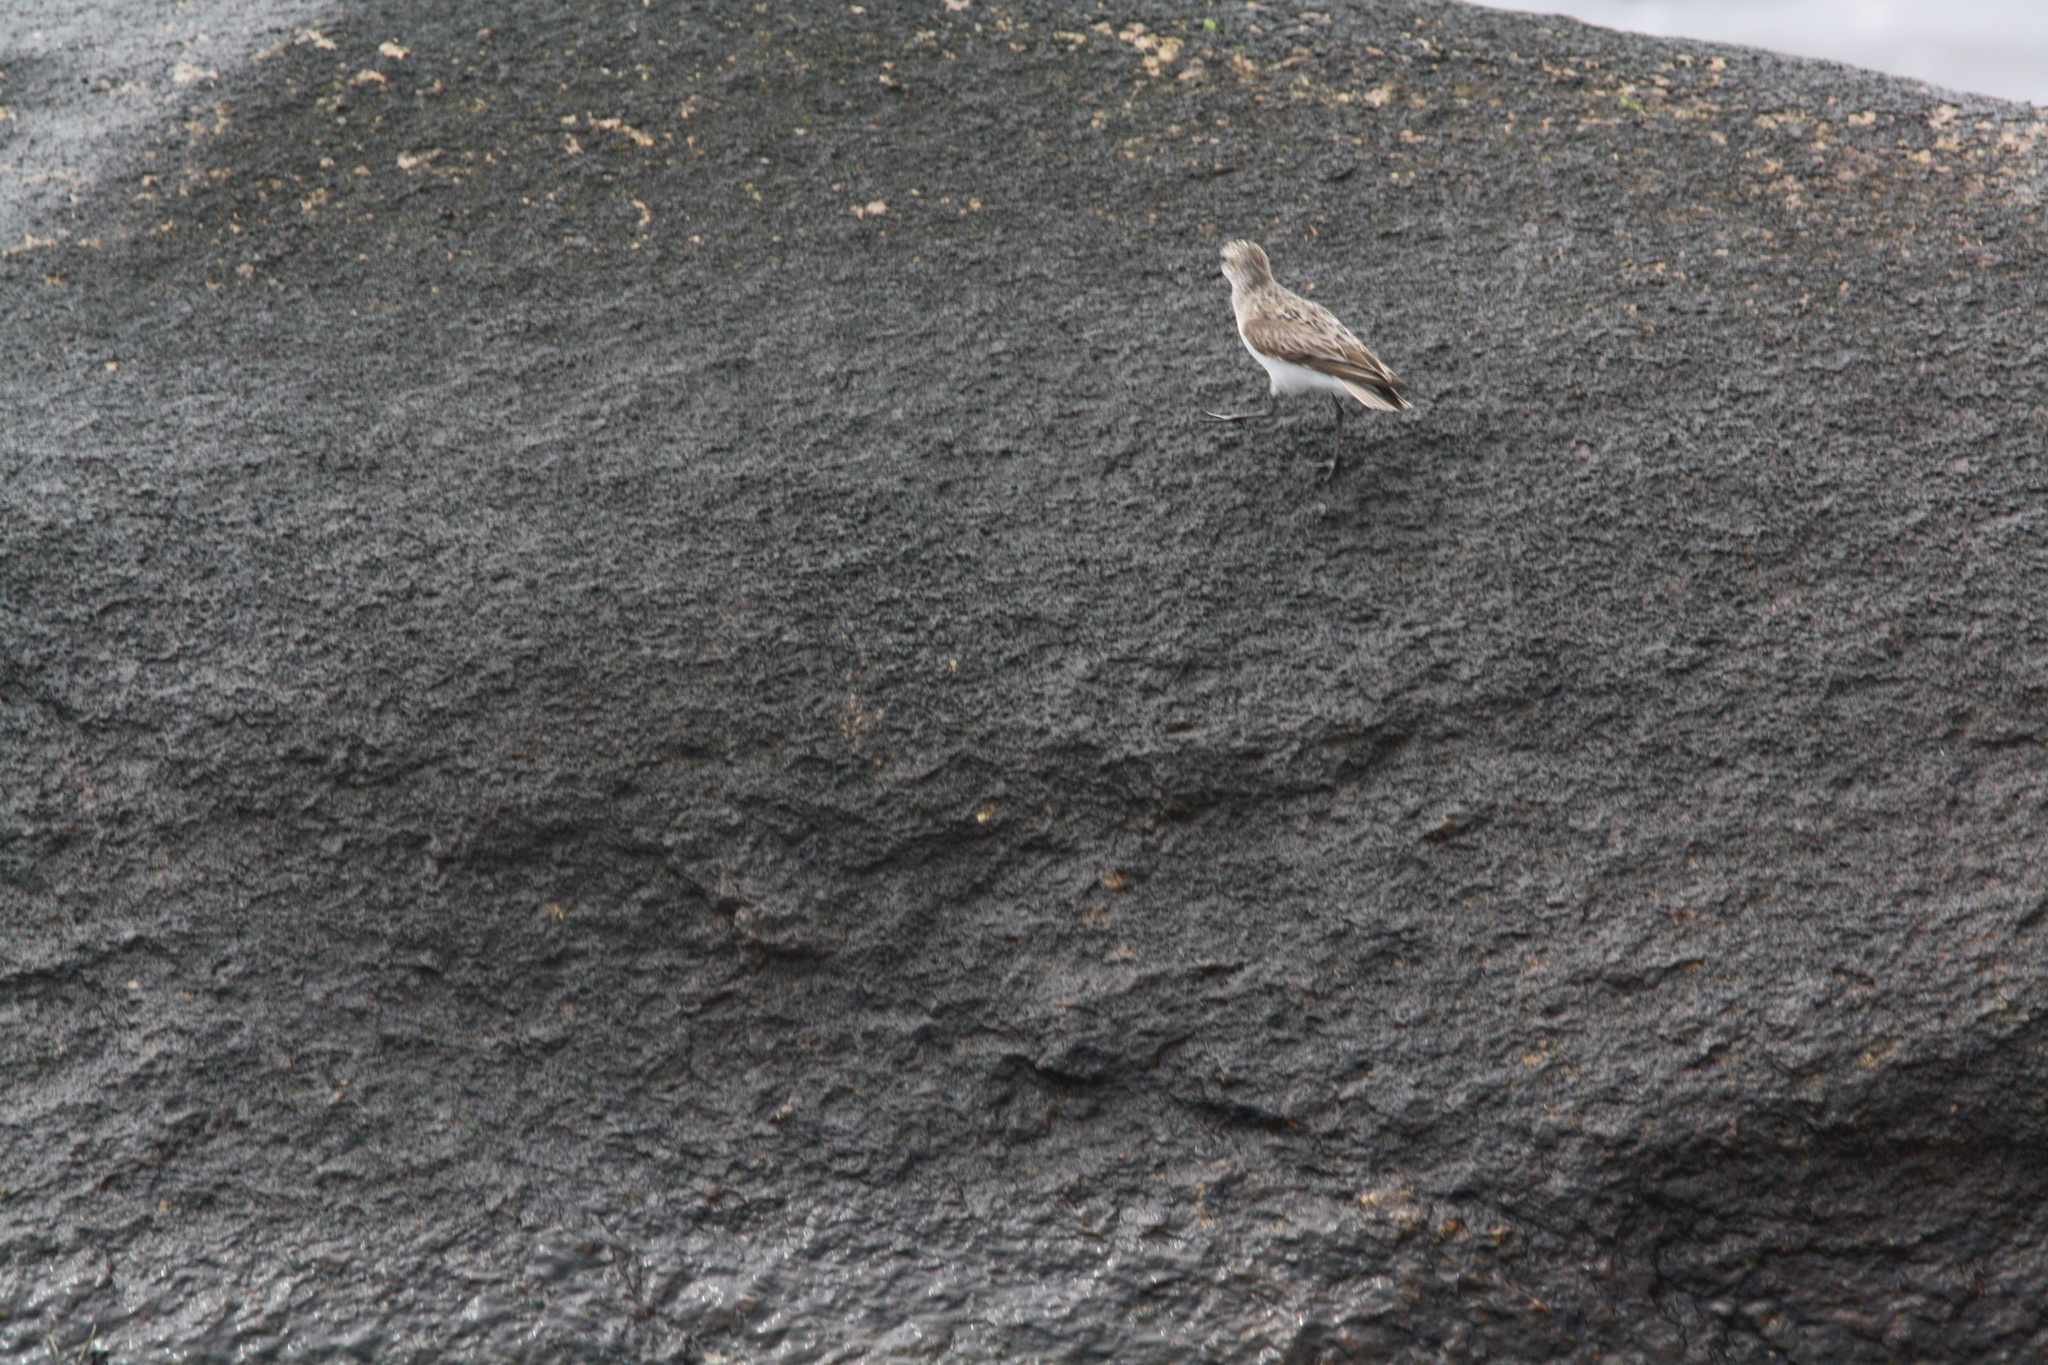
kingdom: Animalia
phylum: Chordata
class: Aves
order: Charadriiformes
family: Scolopacidae
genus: Calidris
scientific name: Calidris pusilla
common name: Semipalmated sandpiper
